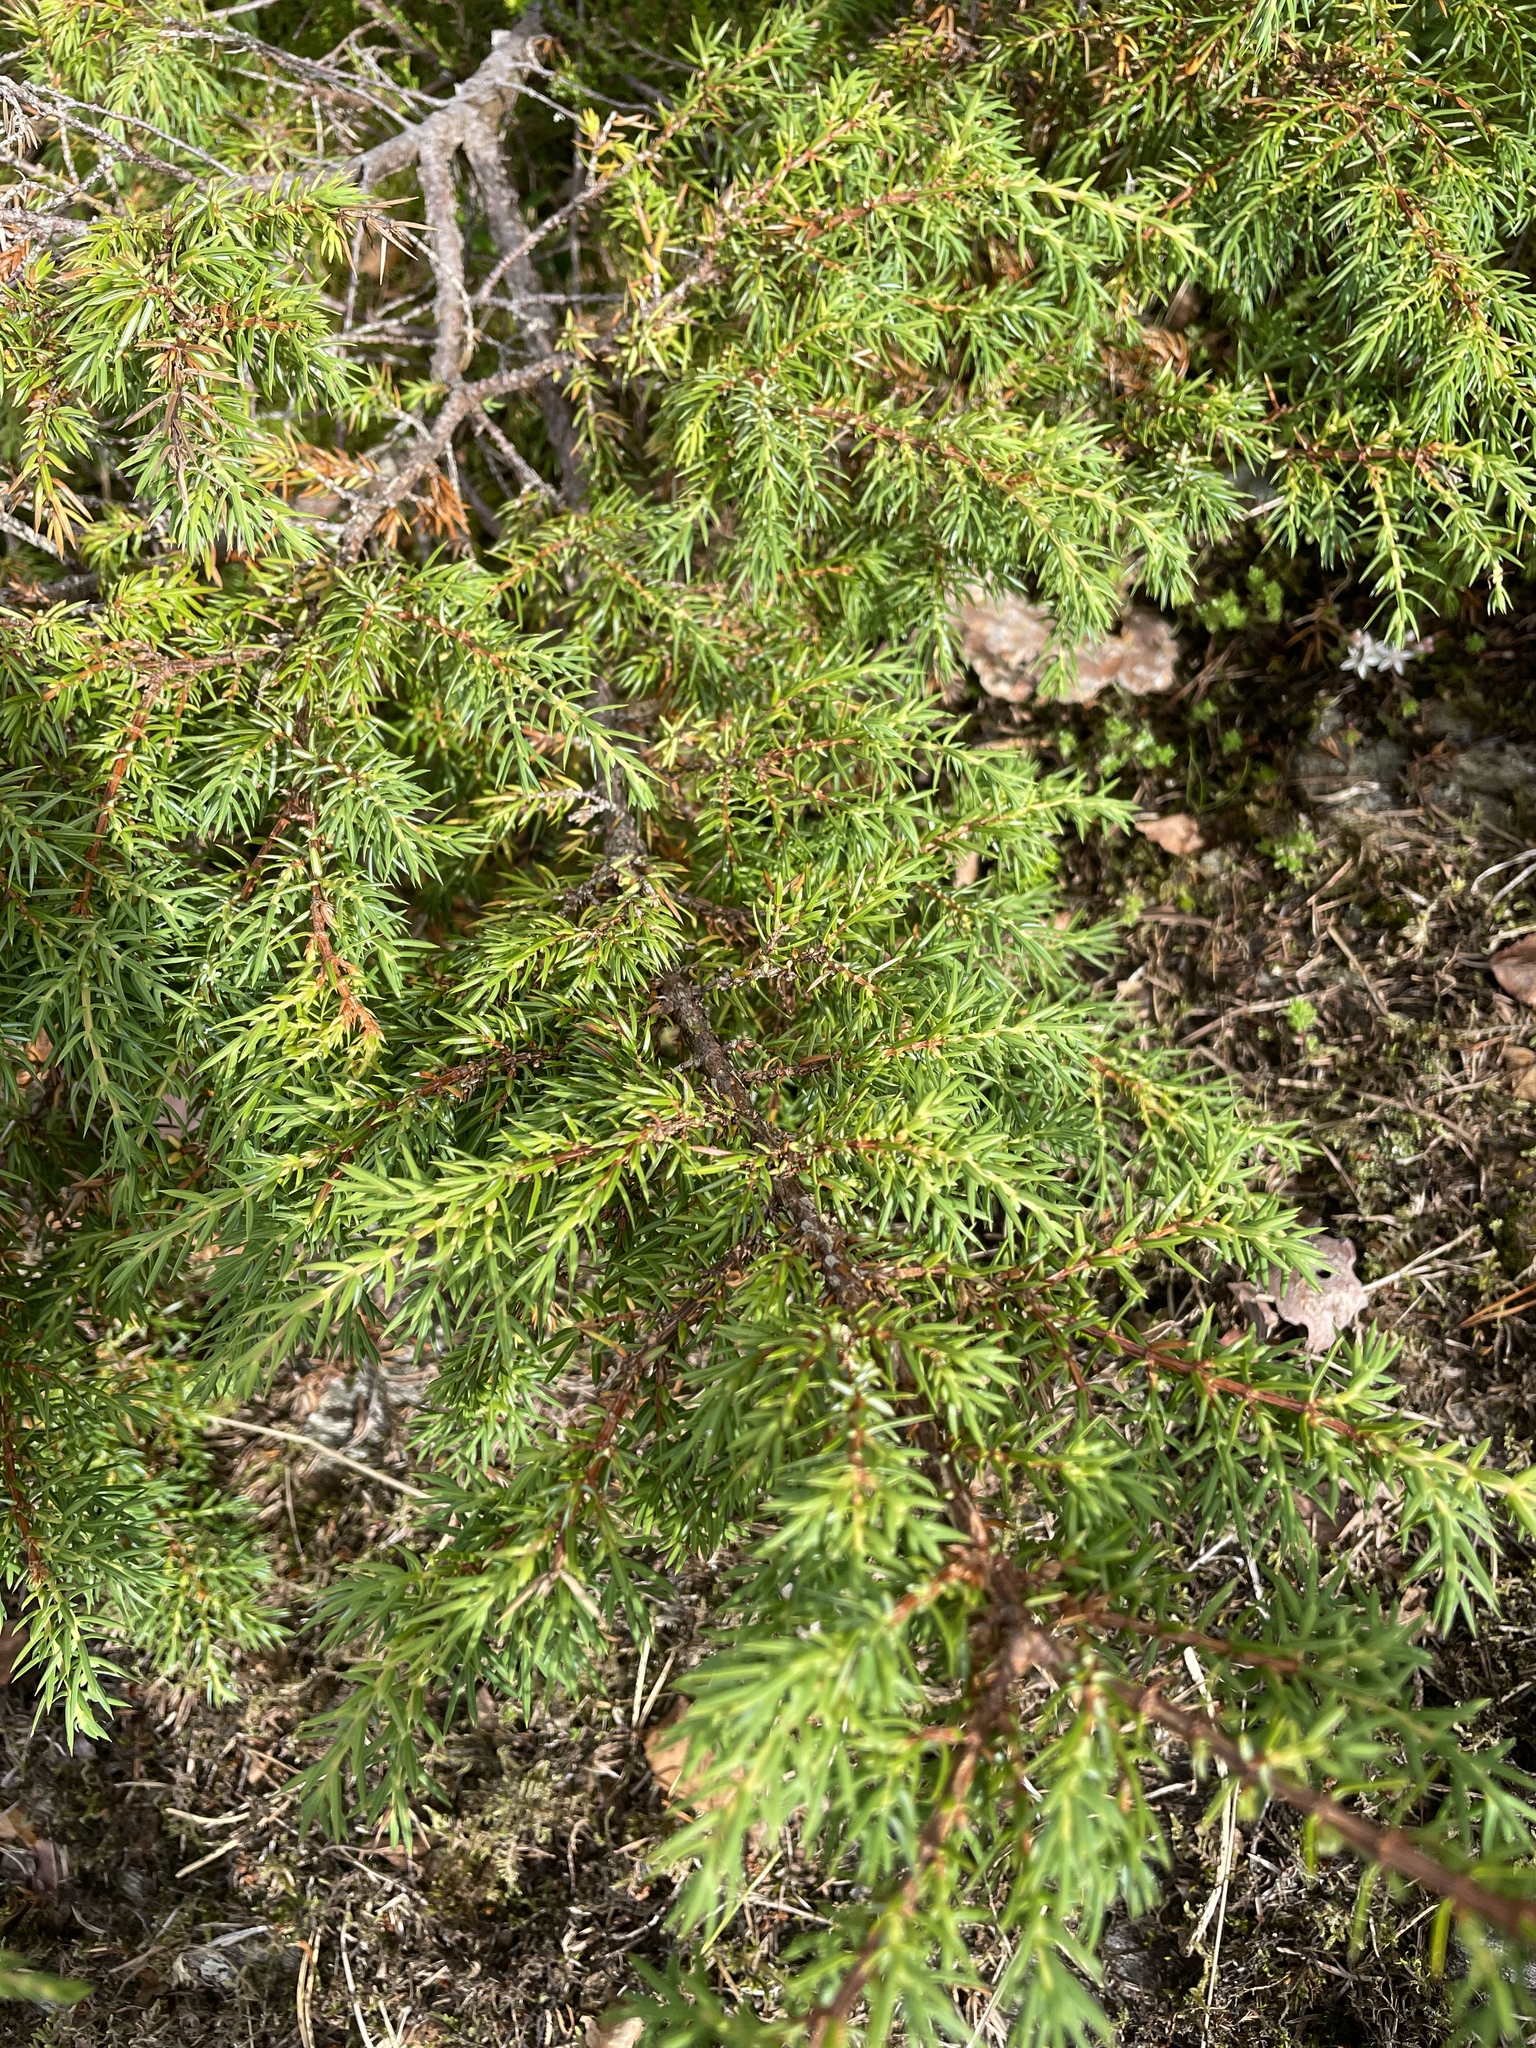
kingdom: Plantae
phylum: Tracheophyta
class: Pinopsida
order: Pinales
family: Cupressaceae
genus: Juniperus
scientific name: Juniperus communis
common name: Common juniper
